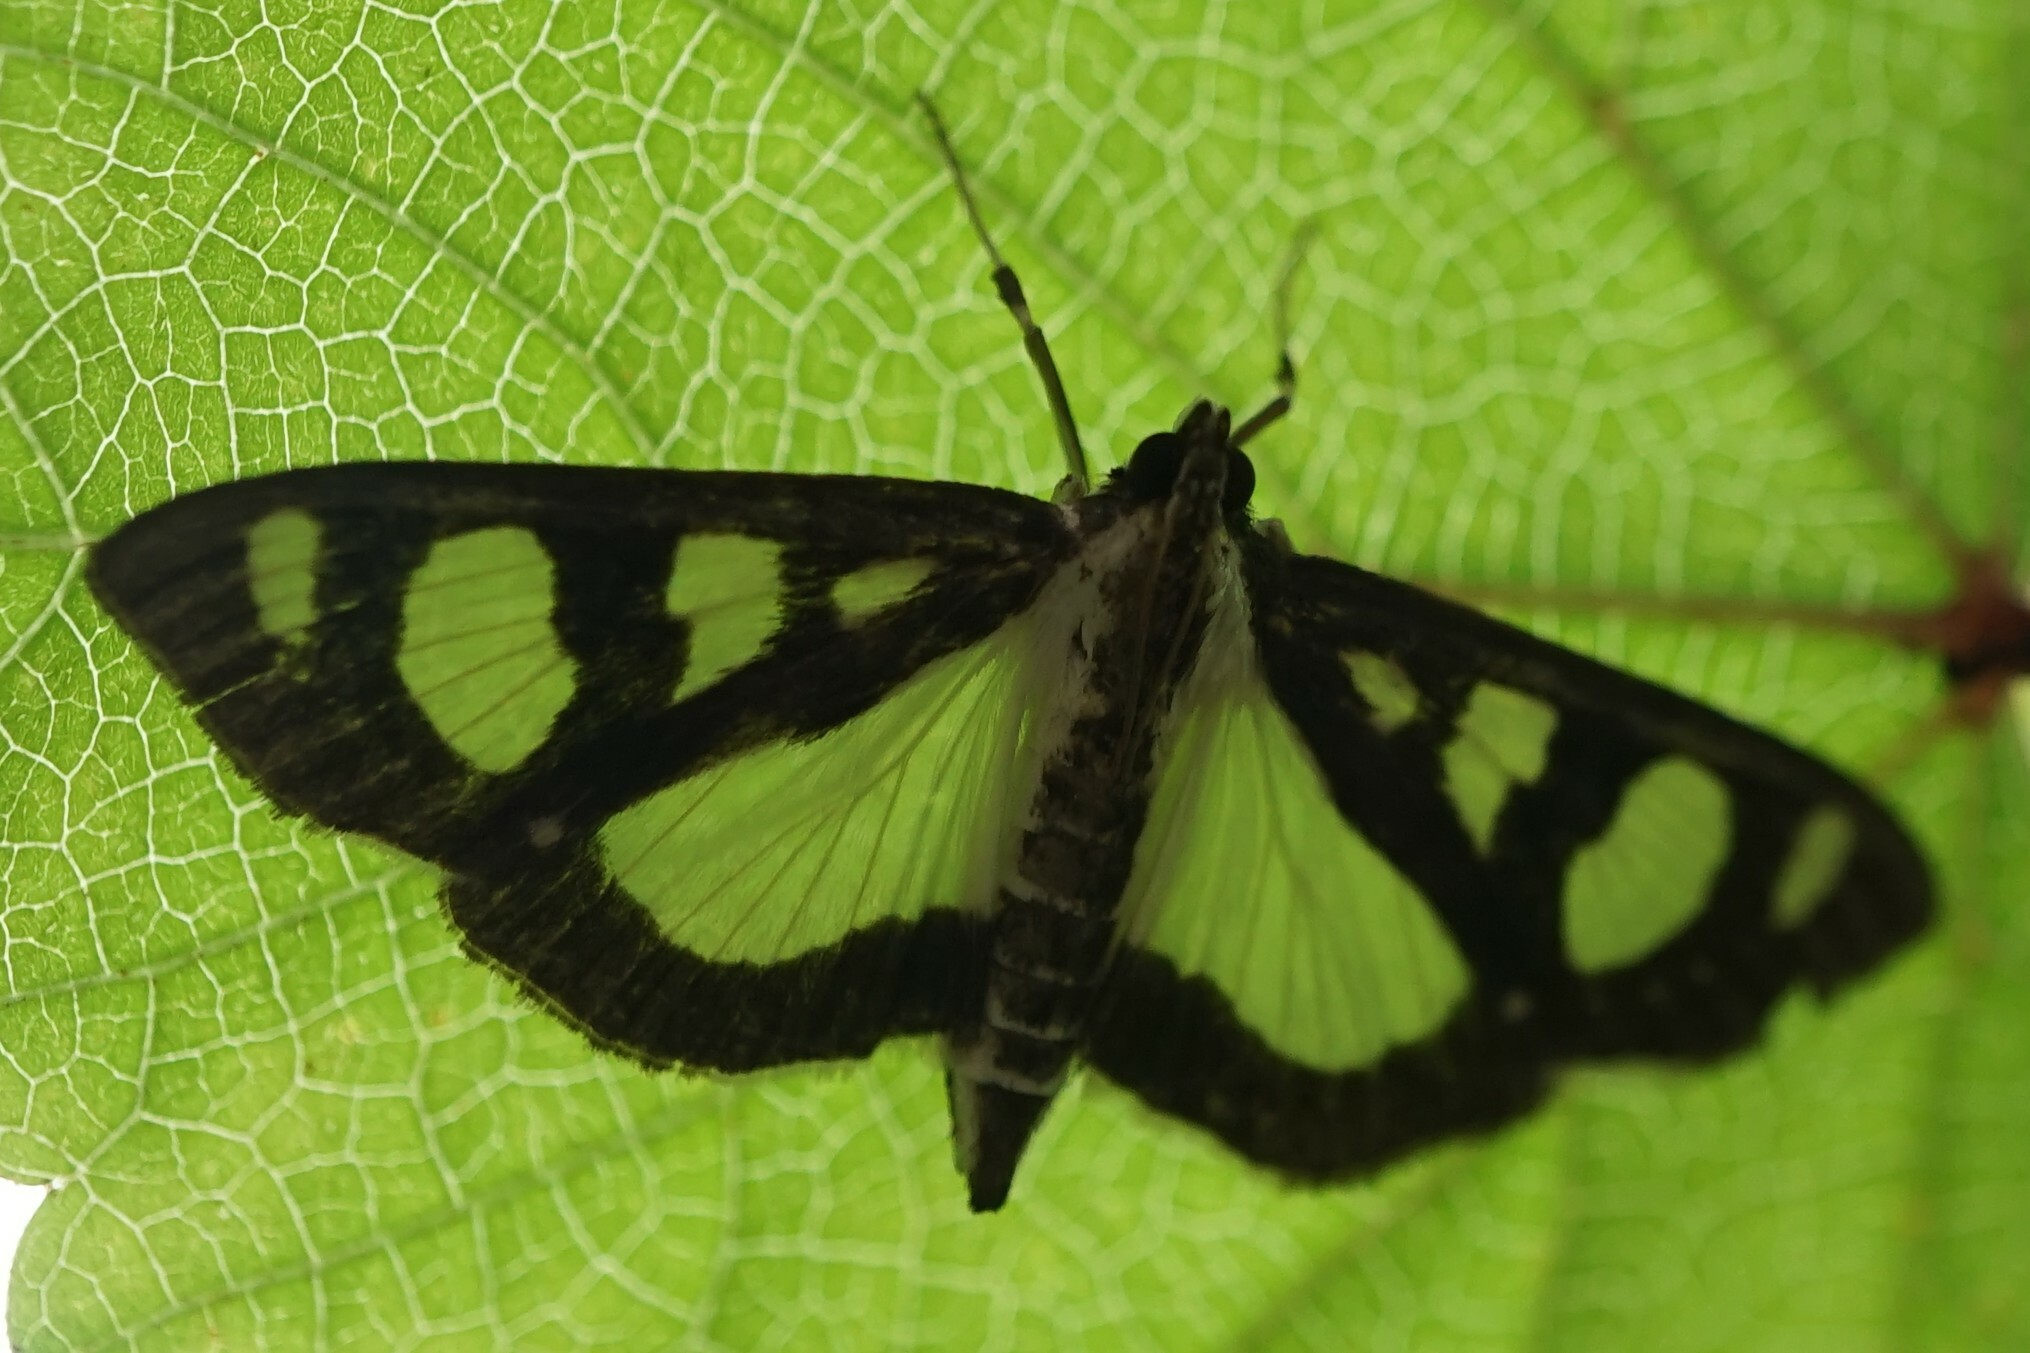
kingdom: Animalia
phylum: Arthropoda
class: Insecta
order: Lepidoptera
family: Crambidae
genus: Glyphodes
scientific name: Glyphodes quadrimaculalis
